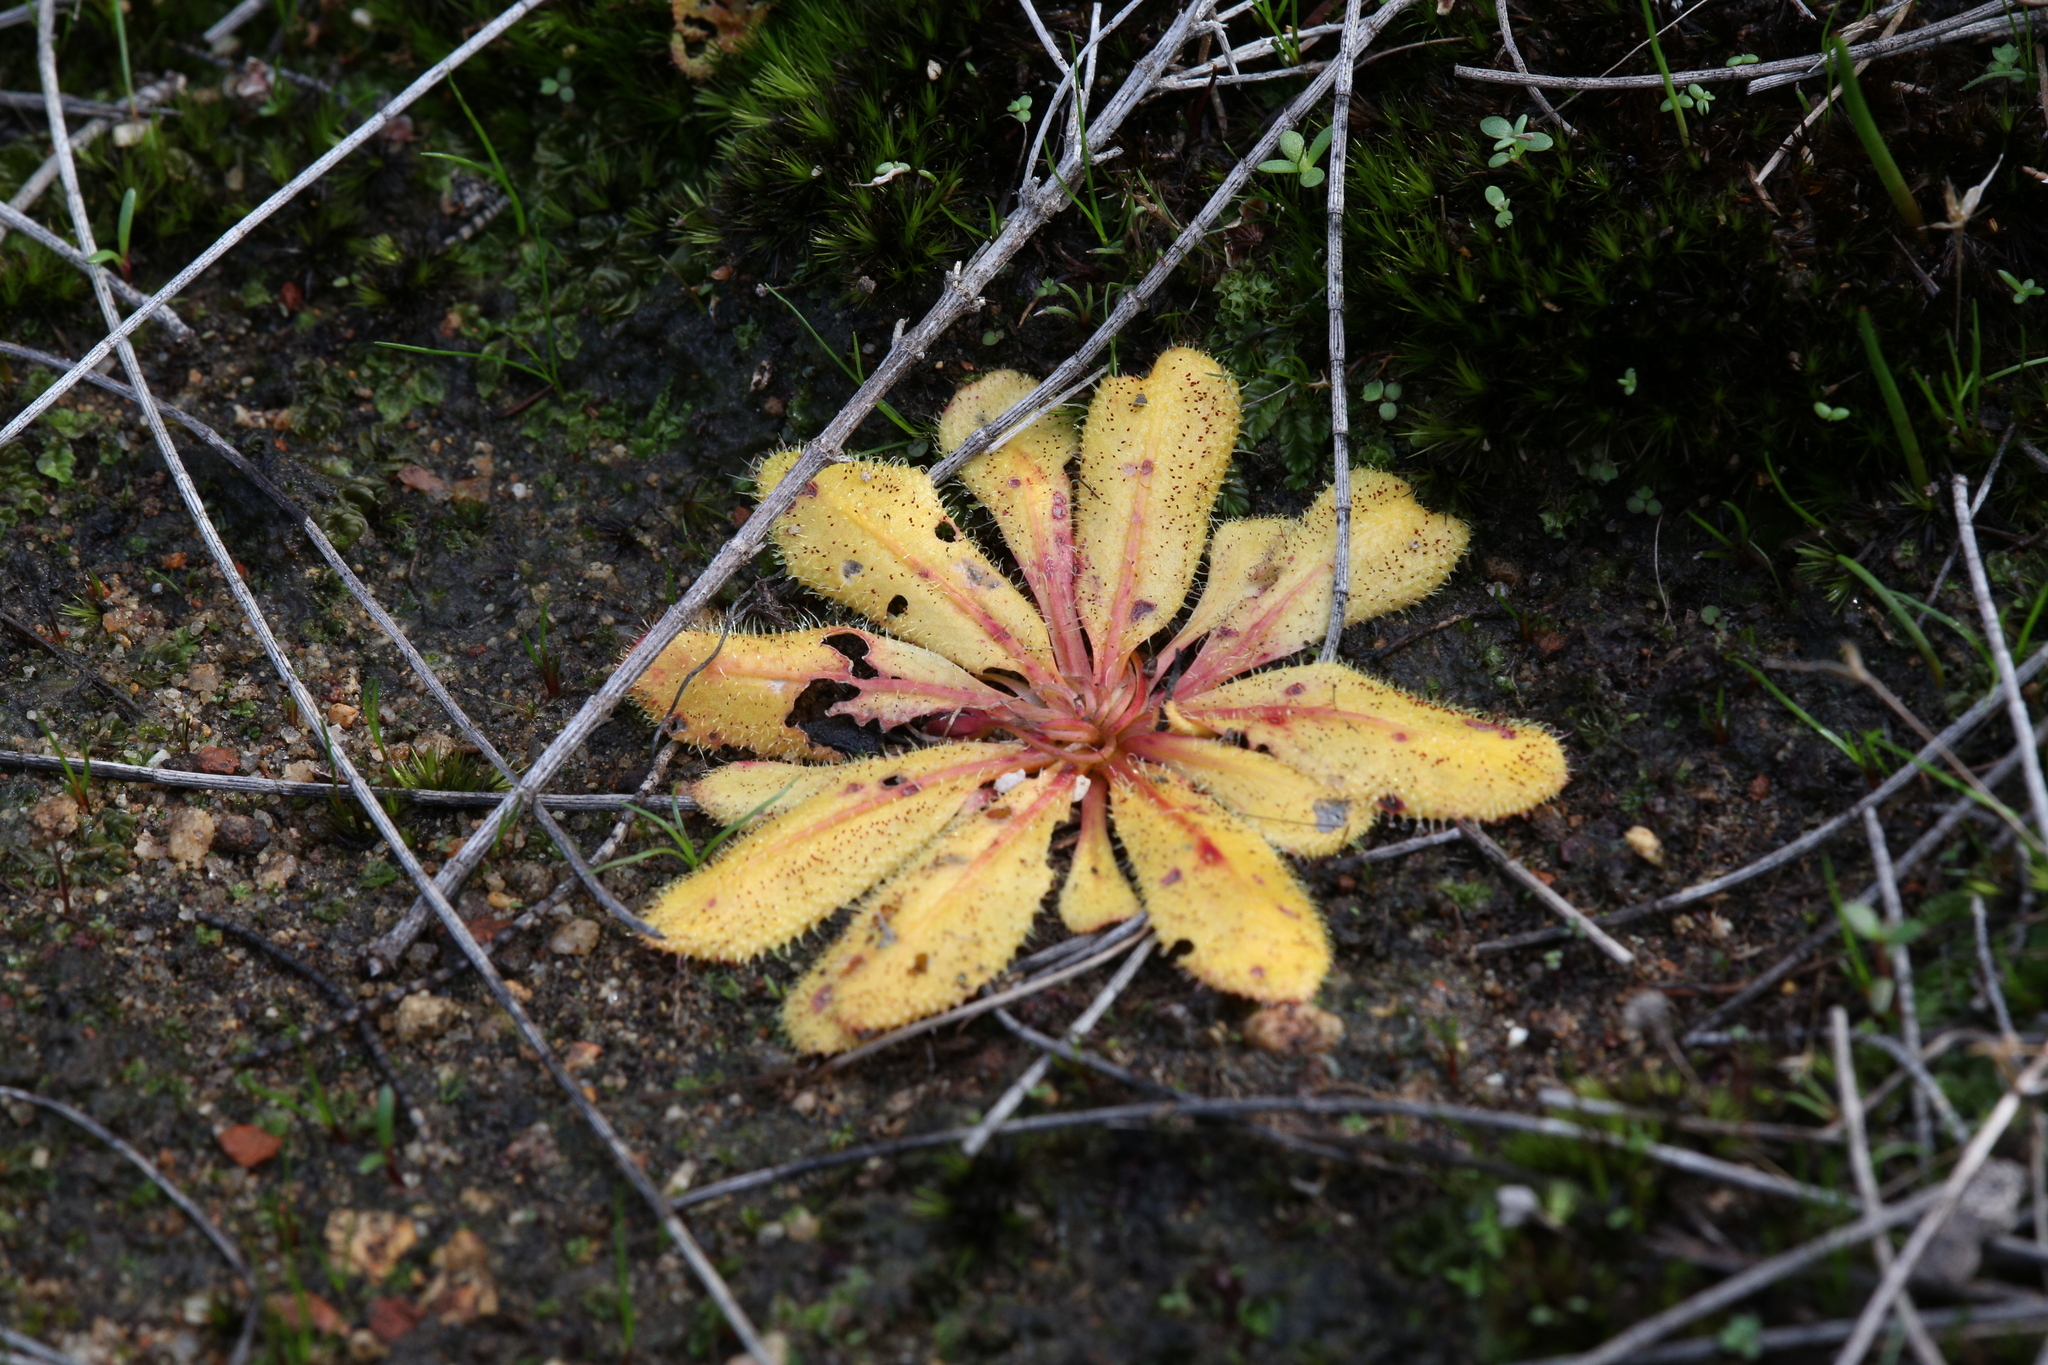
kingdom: Plantae
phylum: Tracheophyta
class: Magnoliopsida
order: Caryophyllales
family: Droseraceae
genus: Drosera
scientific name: Drosera bulbosa
